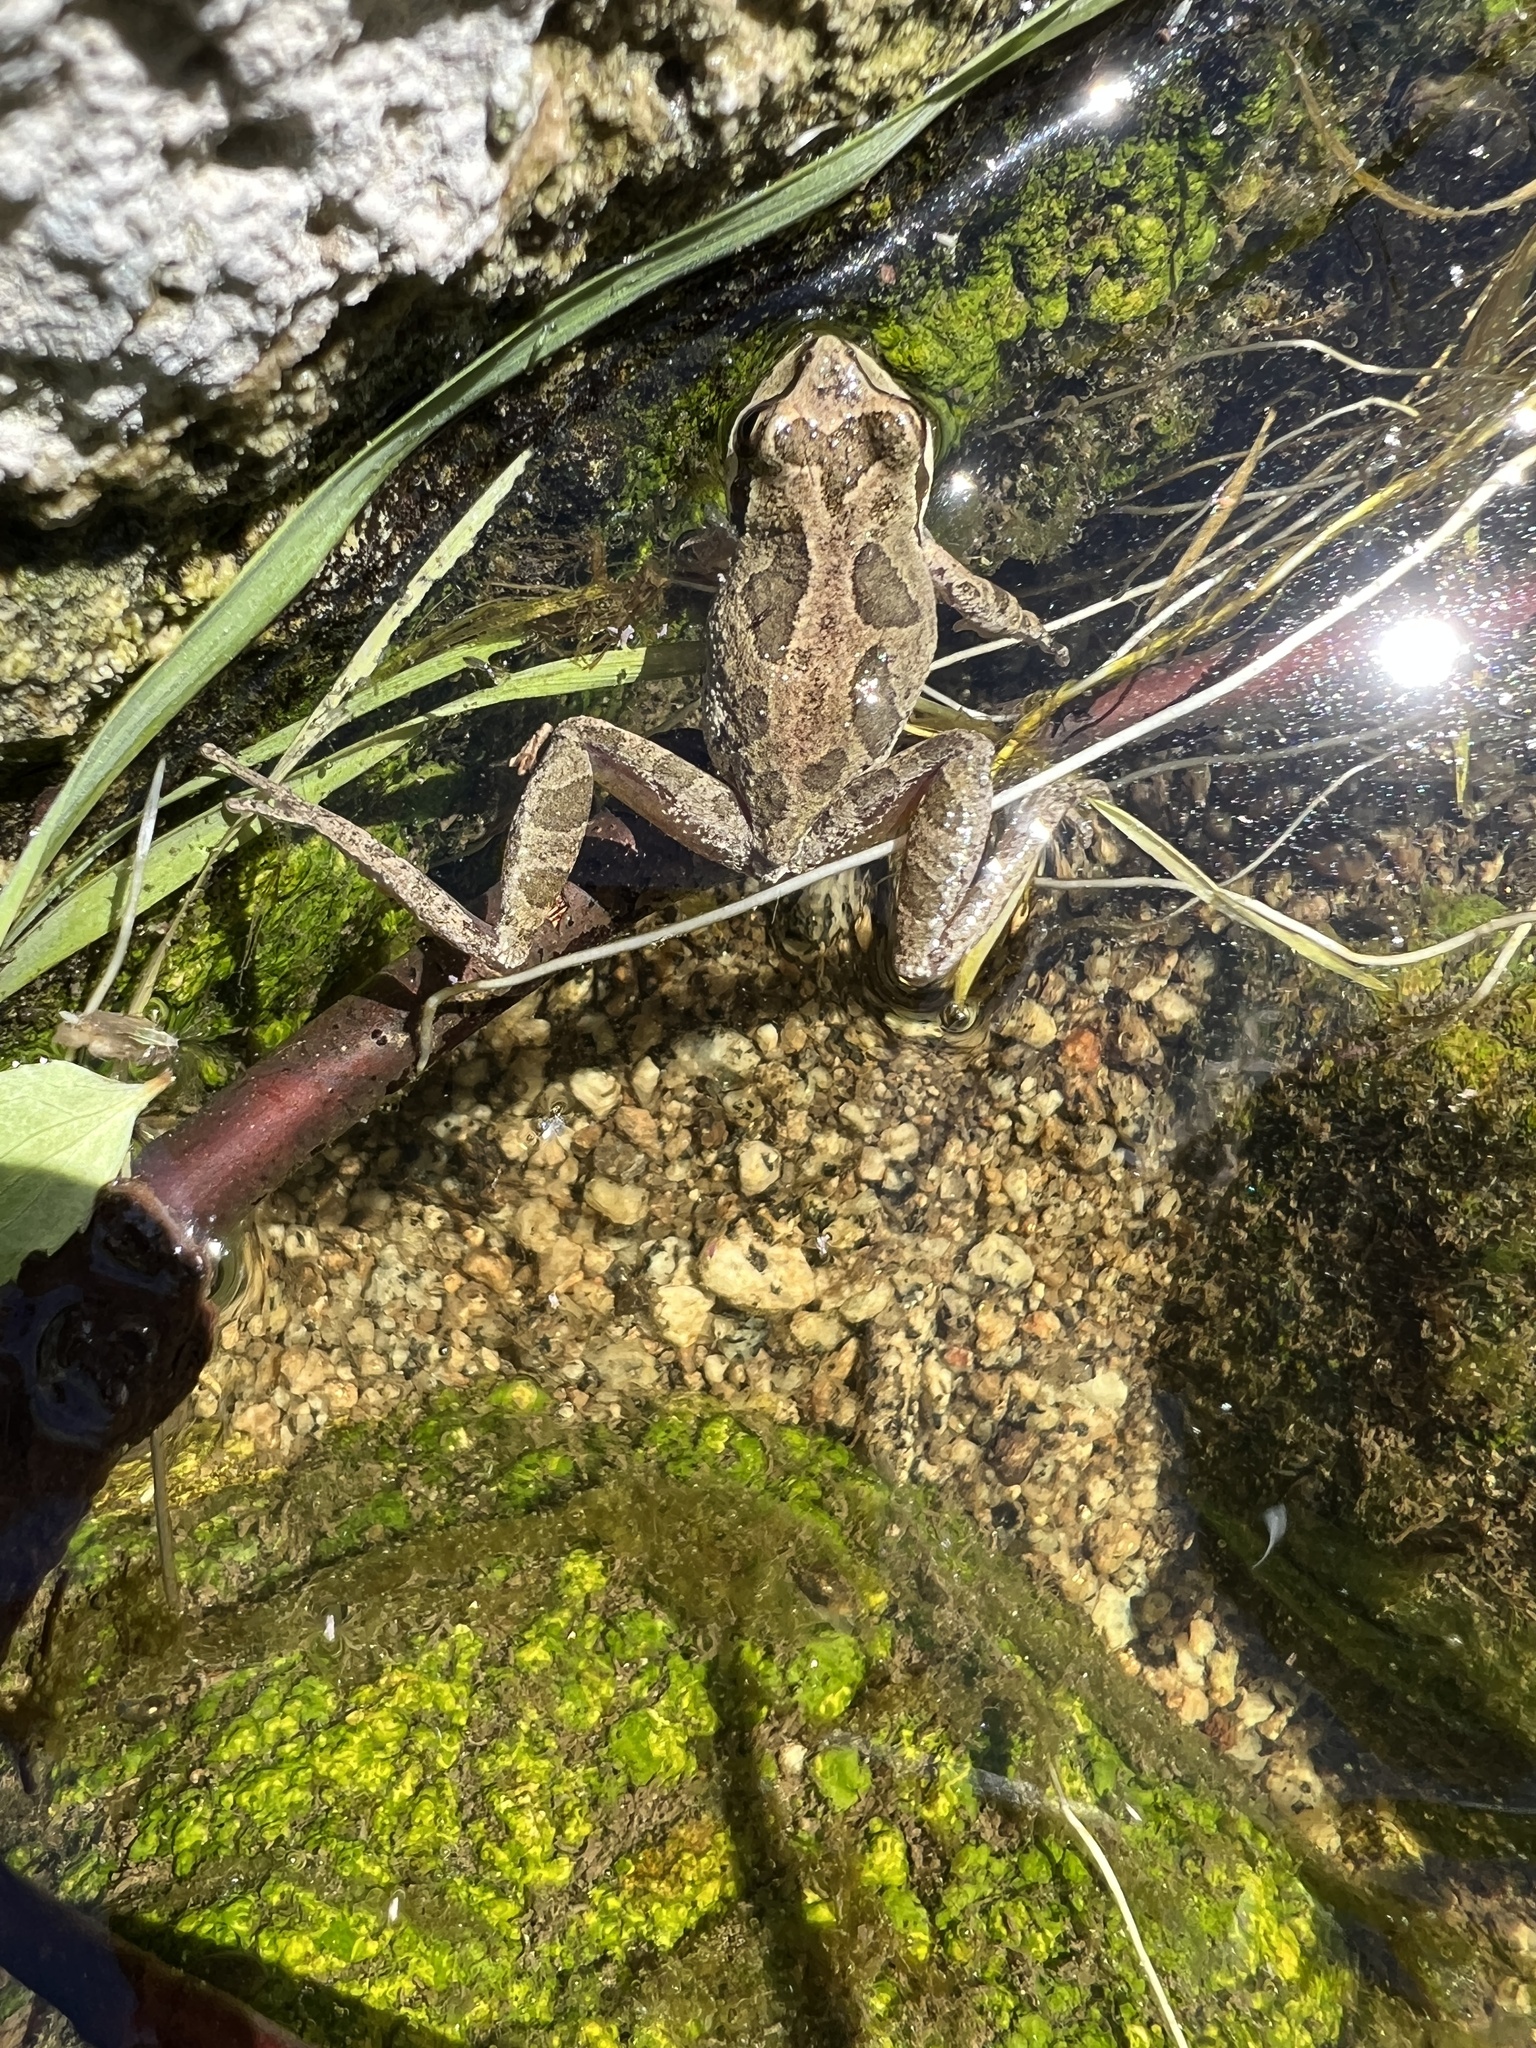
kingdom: Animalia
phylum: Chordata
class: Amphibia
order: Anura
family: Hylidae
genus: Pseudacris
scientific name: Pseudacris regilla
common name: Pacific chorus frog
